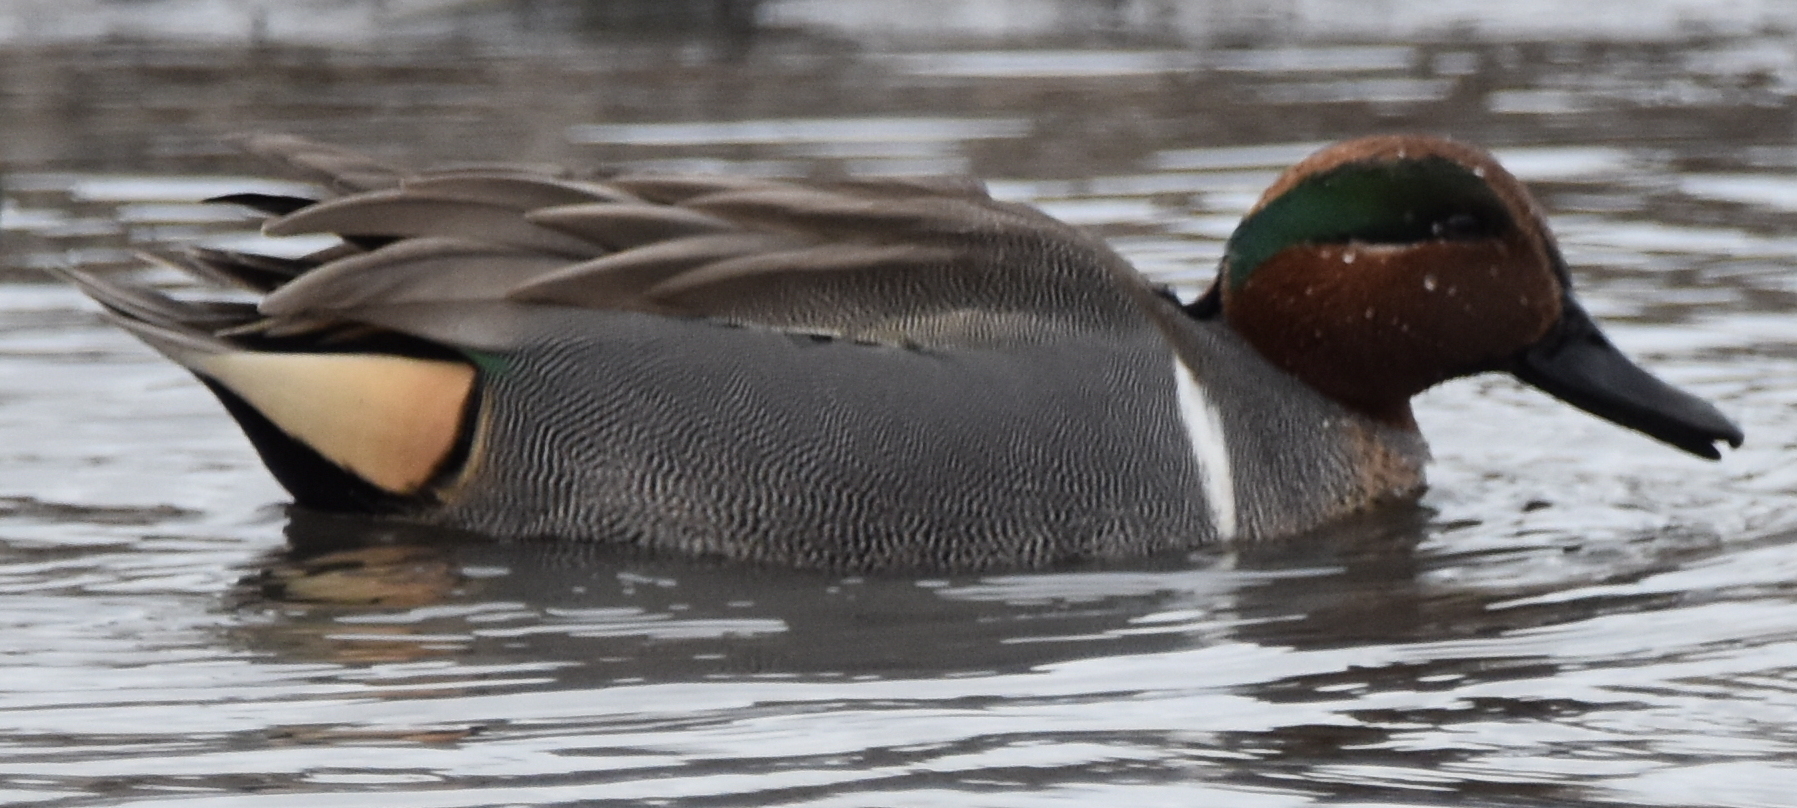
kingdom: Animalia
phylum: Chordata
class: Aves
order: Anseriformes
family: Anatidae
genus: Anas
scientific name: Anas crecca
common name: Eurasian teal
